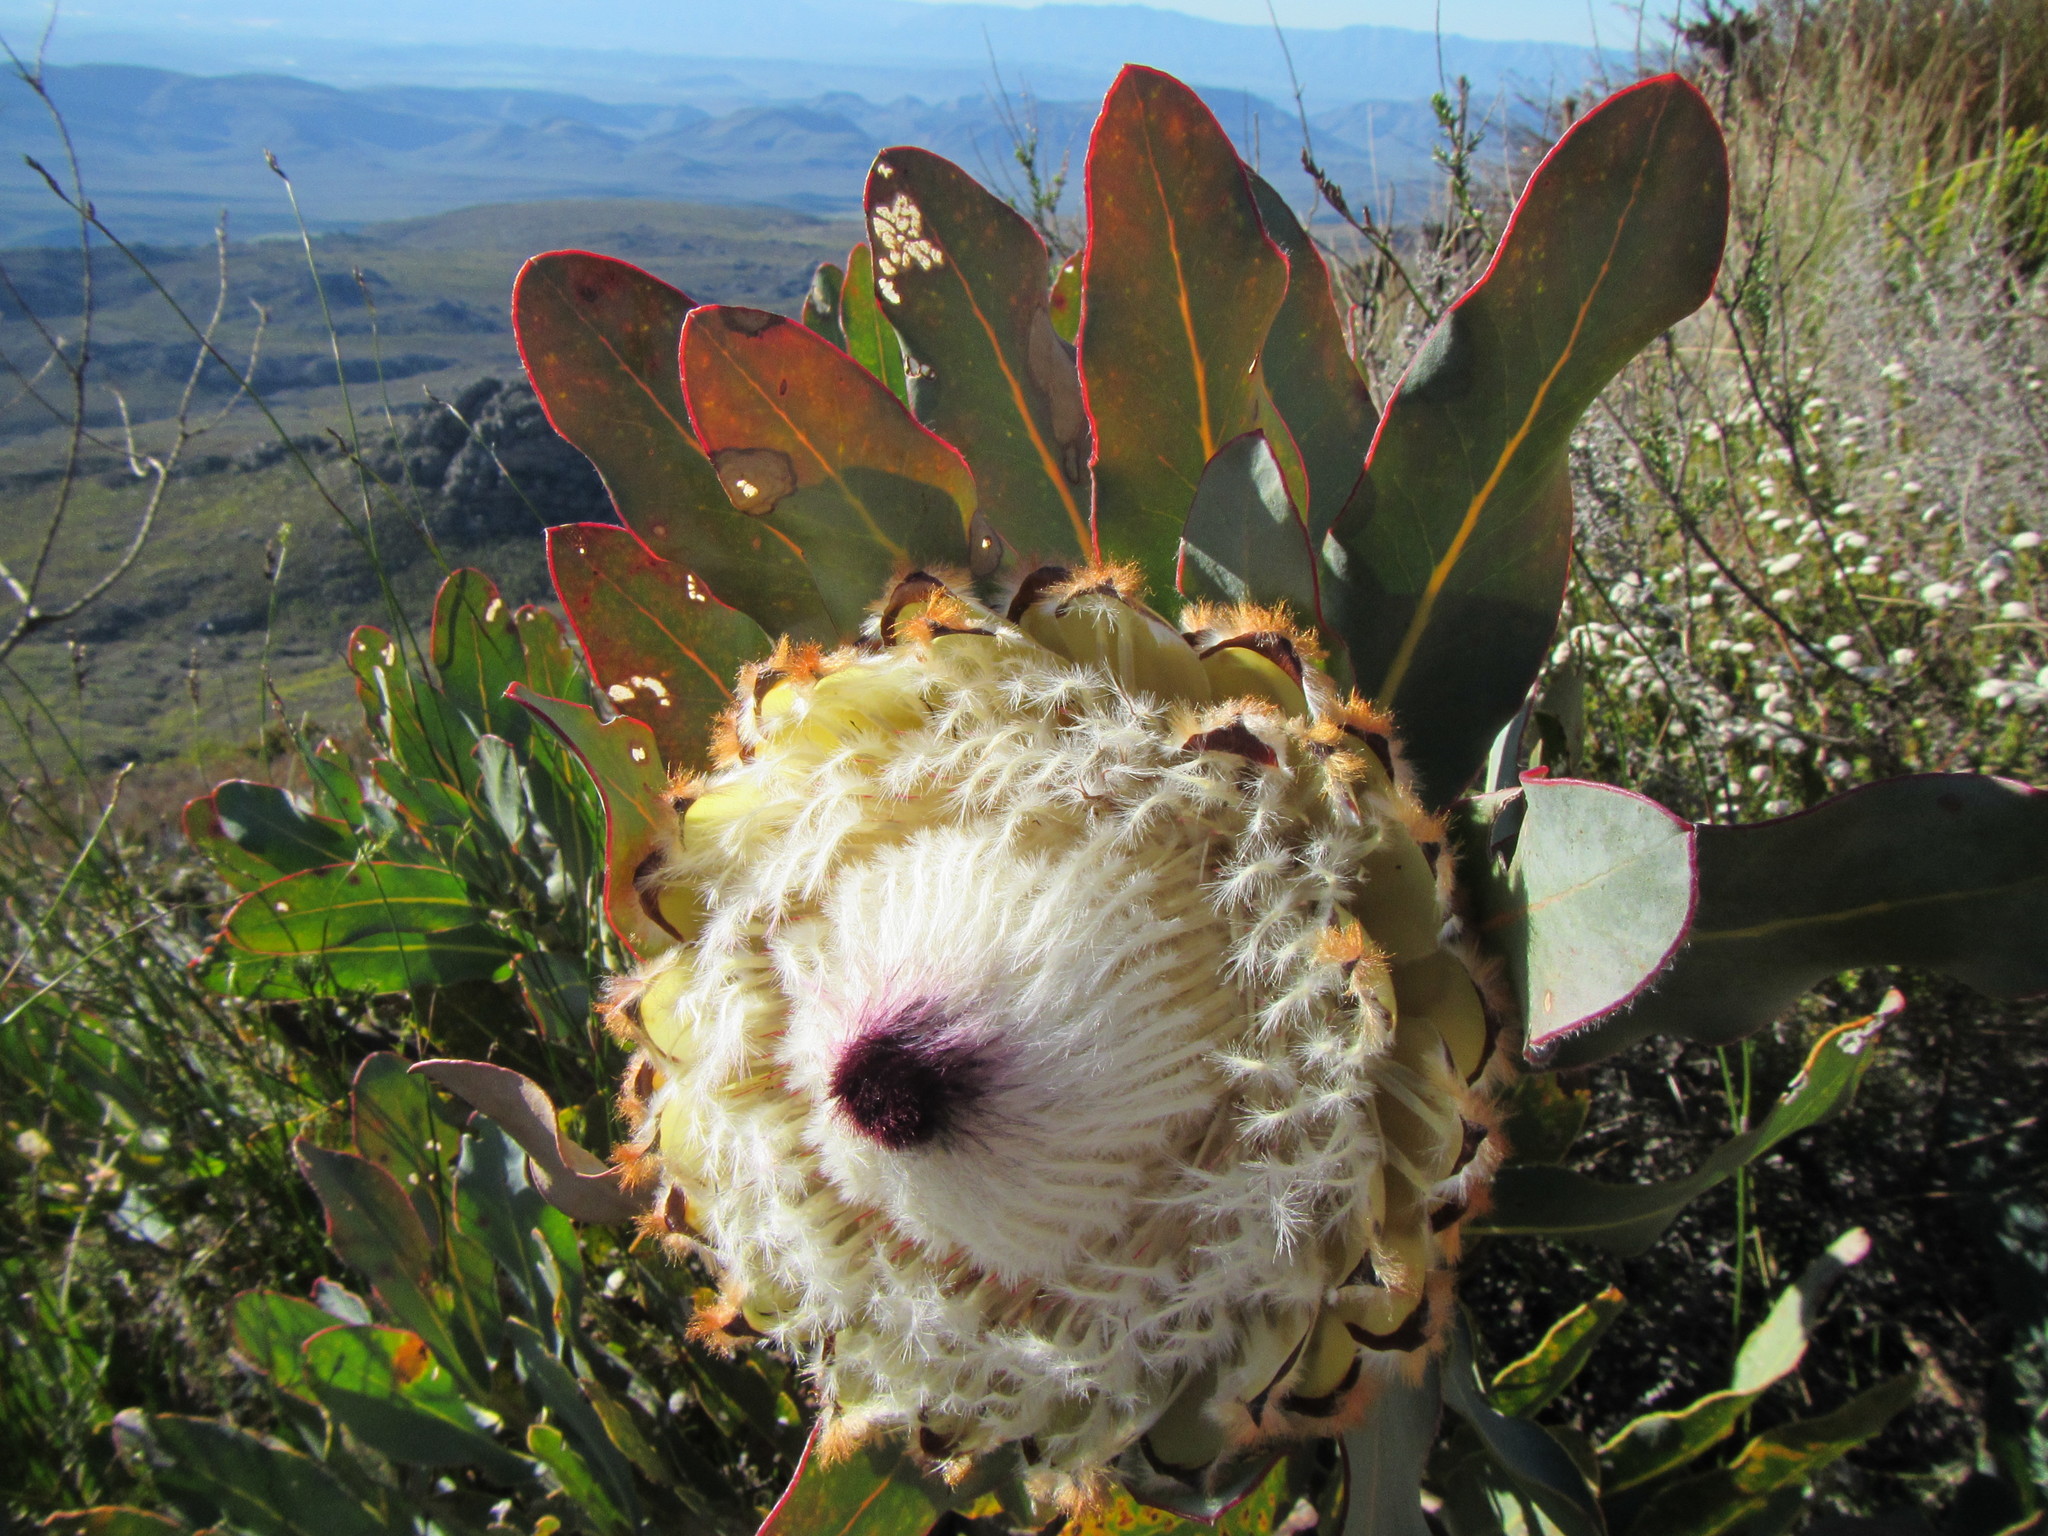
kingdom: Plantae
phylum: Tracheophyta
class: Magnoliopsida
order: Proteales
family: Proteaceae
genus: Protea
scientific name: Protea magnifica
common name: Bearded sugarbush
